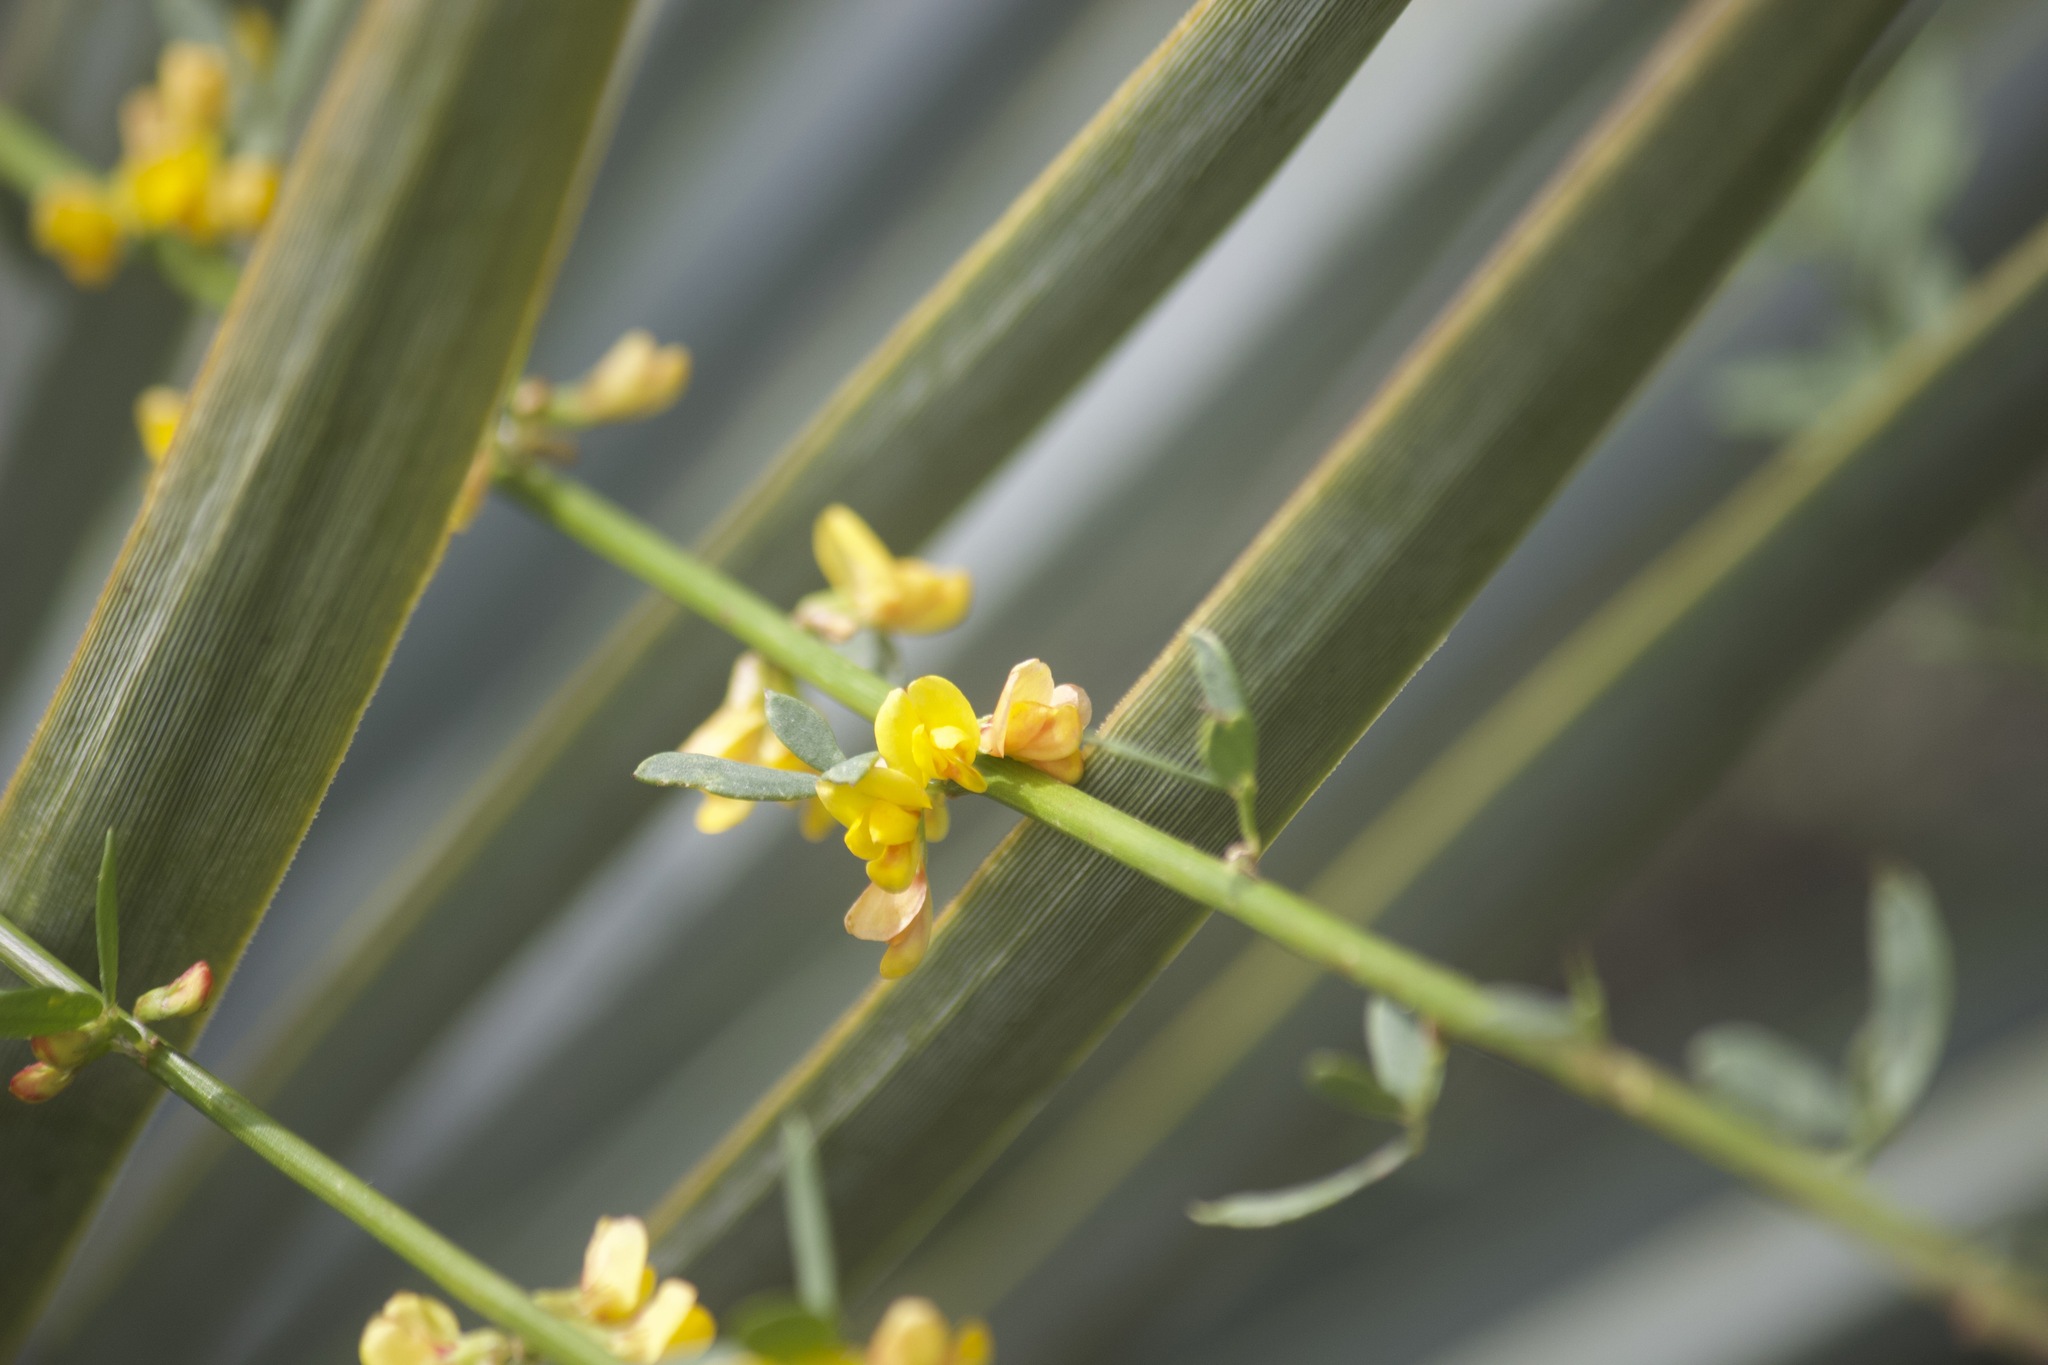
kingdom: Plantae
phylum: Tracheophyta
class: Magnoliopsida
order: Fabales
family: Fabaceae
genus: Acmispon
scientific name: Acmispon glaber
